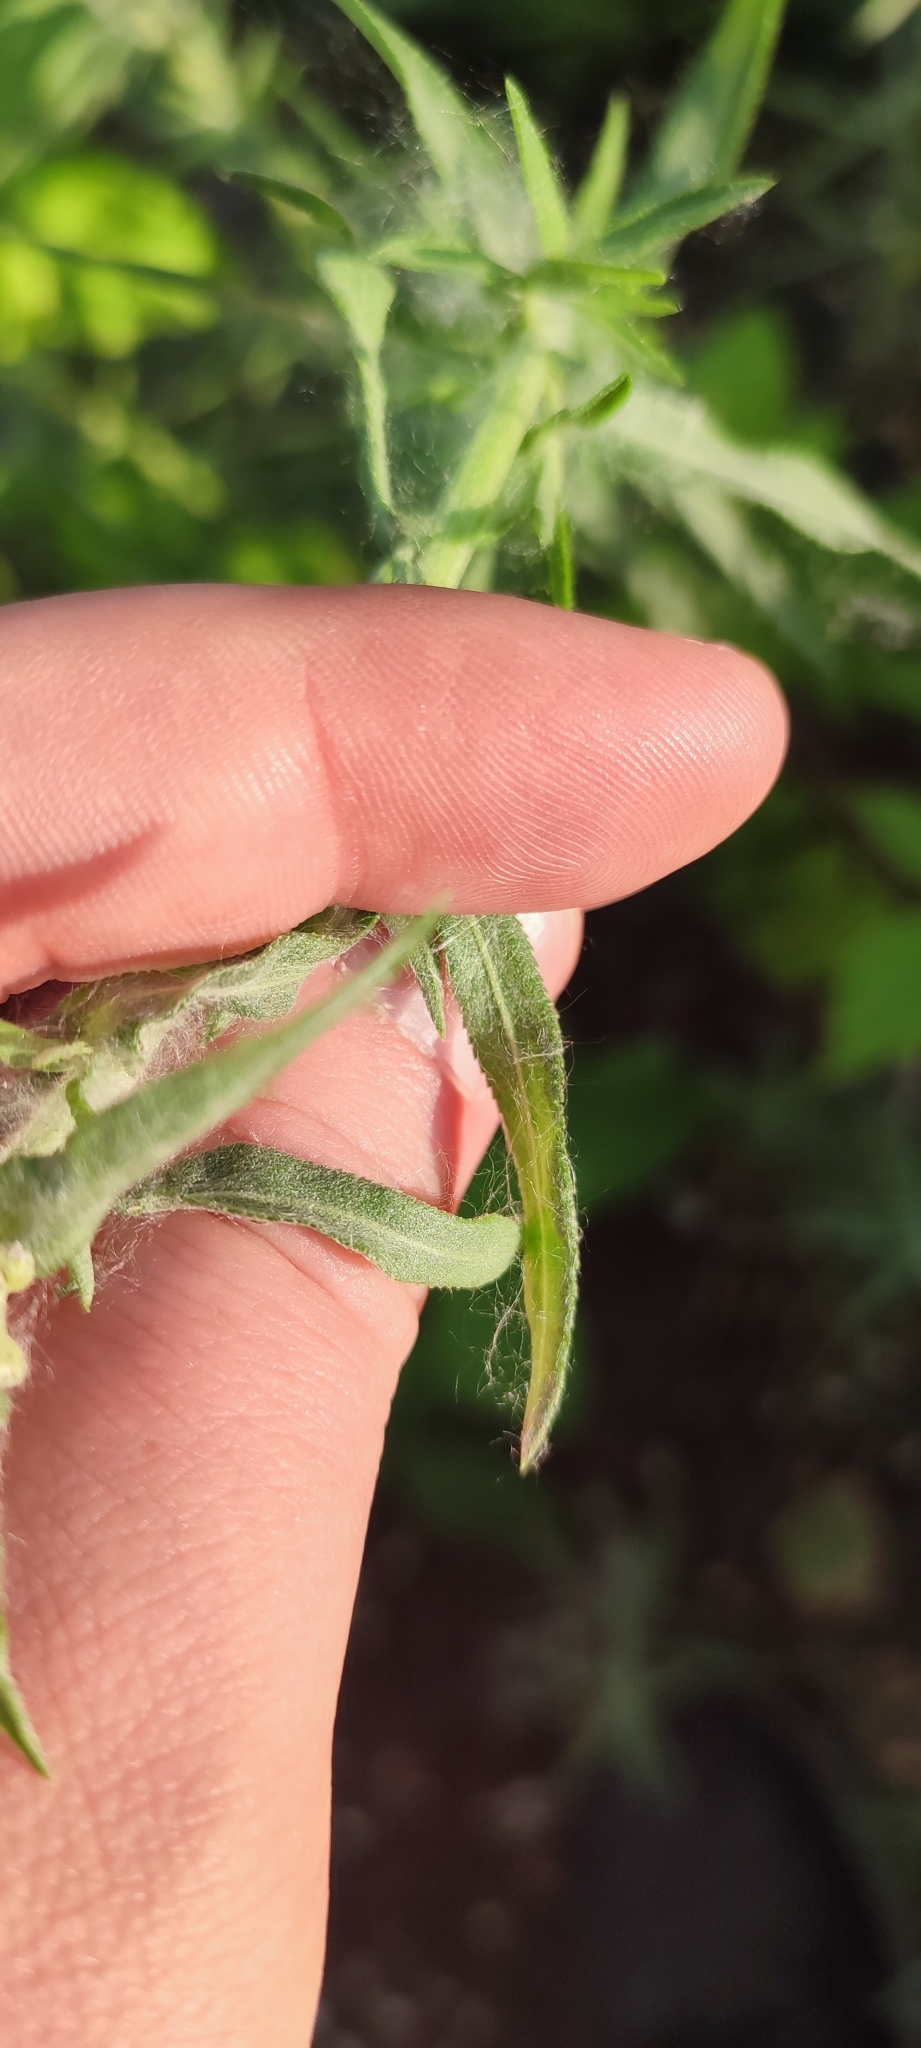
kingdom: Plantae
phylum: Tracheophyta
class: Magnoliopsida
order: Asterales
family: Asteraceae
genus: Achillea
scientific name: Achillea salicifolia
